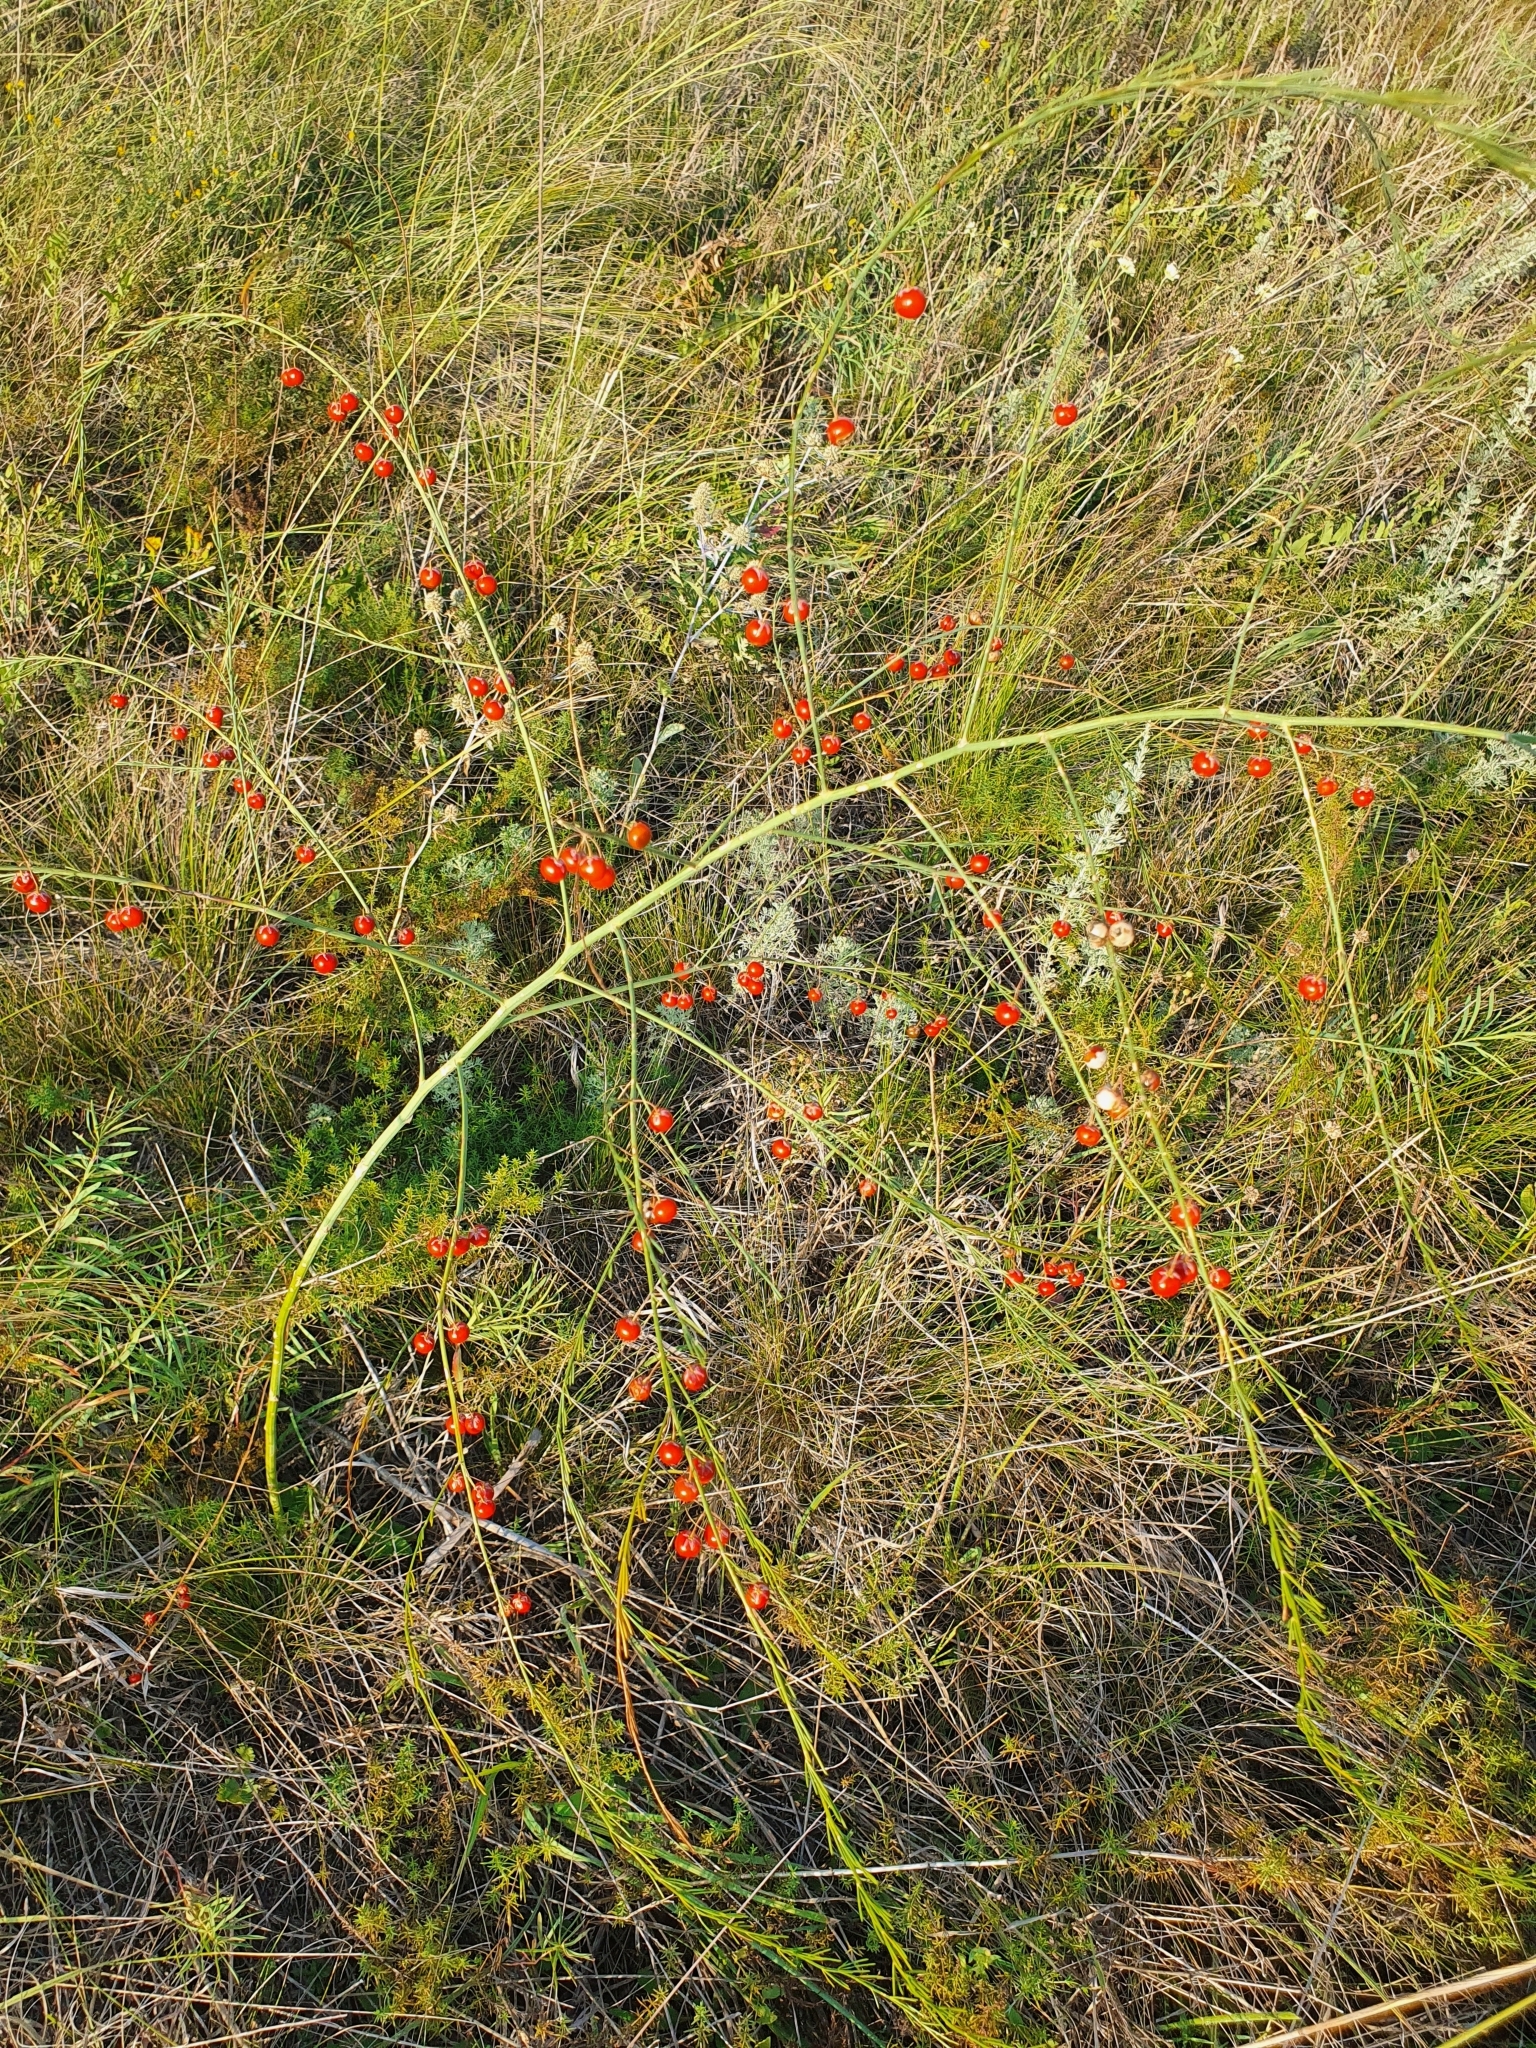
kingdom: Plantae
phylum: Tracheophyta
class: Liliopsida
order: Asparagales
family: Asparagaceae
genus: Asparagus
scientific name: Asparagus officinalis
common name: Garden asparagus
